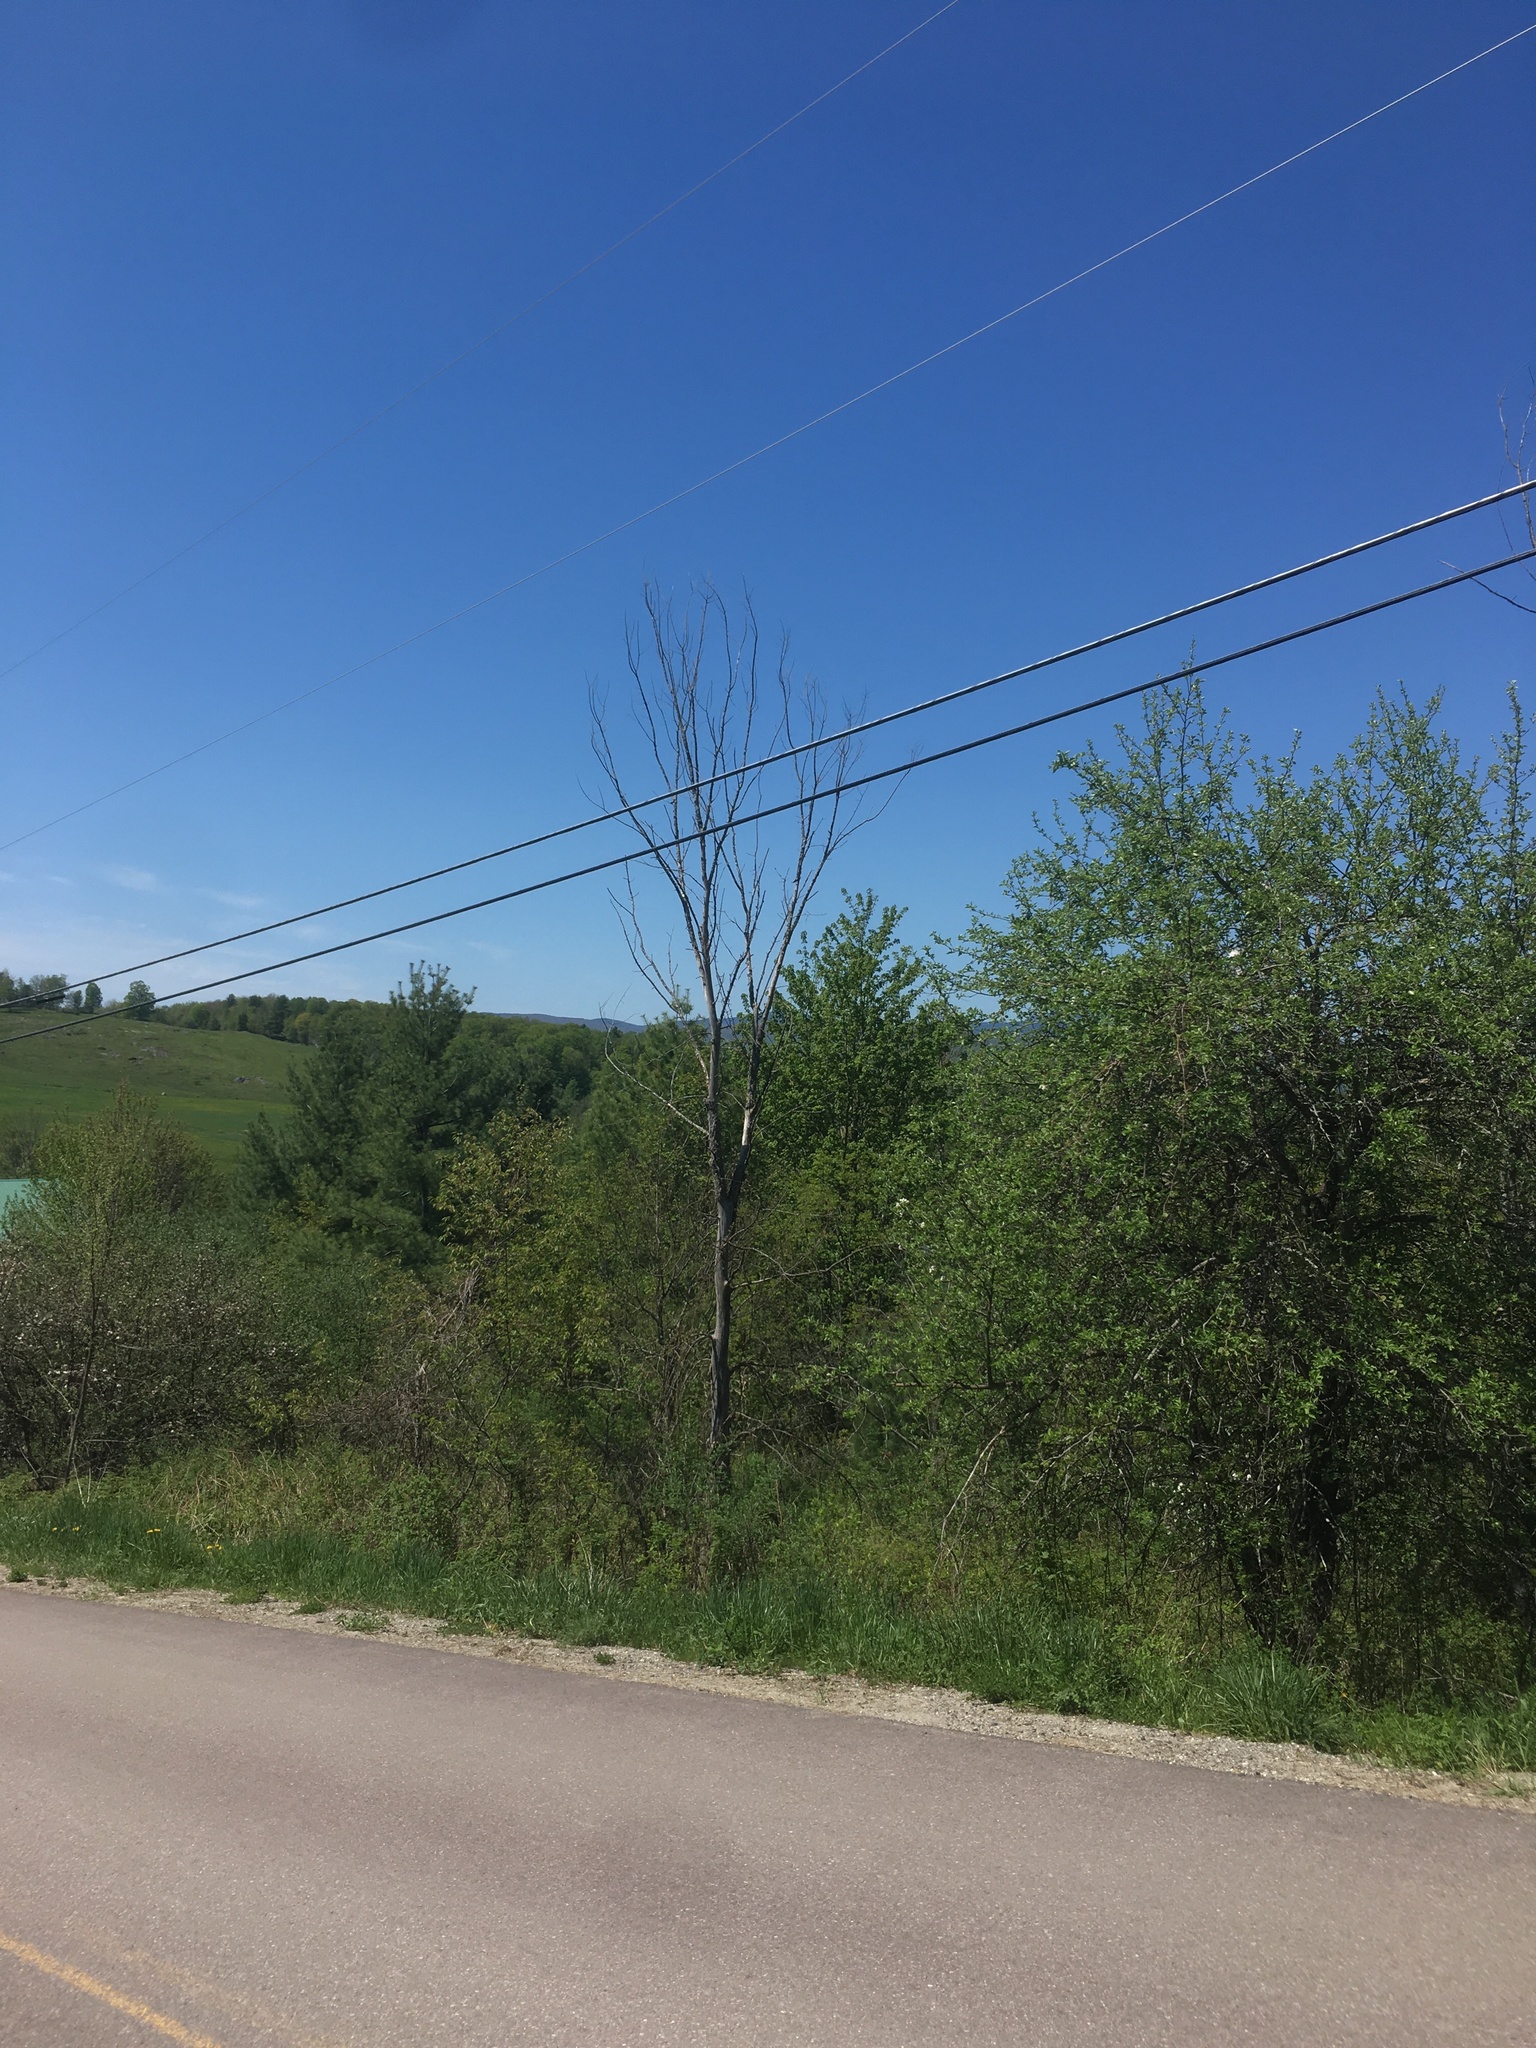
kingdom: Plantae
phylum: Tracheophyta
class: Magnoliopsida
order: Rosales
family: Ulmaceae
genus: Ulmus
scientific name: Ulmus americana
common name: American elm
